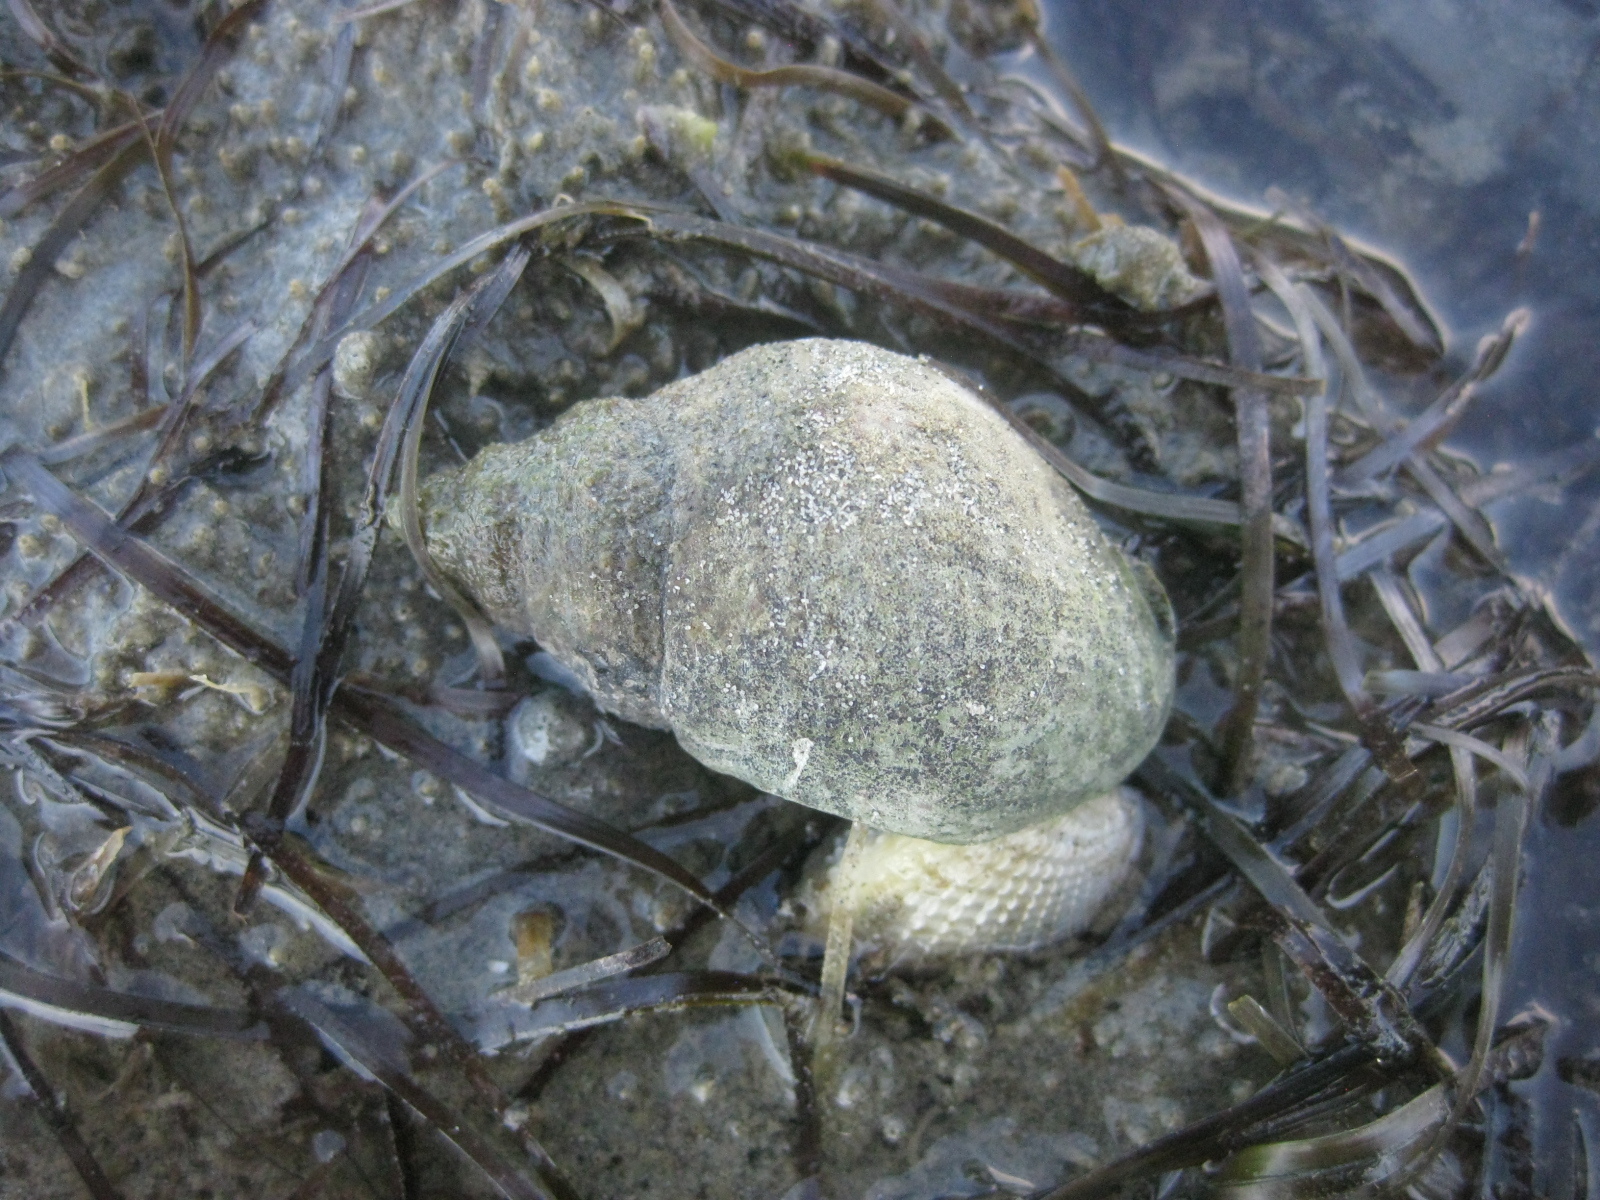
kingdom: Animalia
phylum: Mollusca
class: Gastropoda
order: Neogastropoda
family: Cominellidae
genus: Cominella
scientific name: Cominella adspersa
